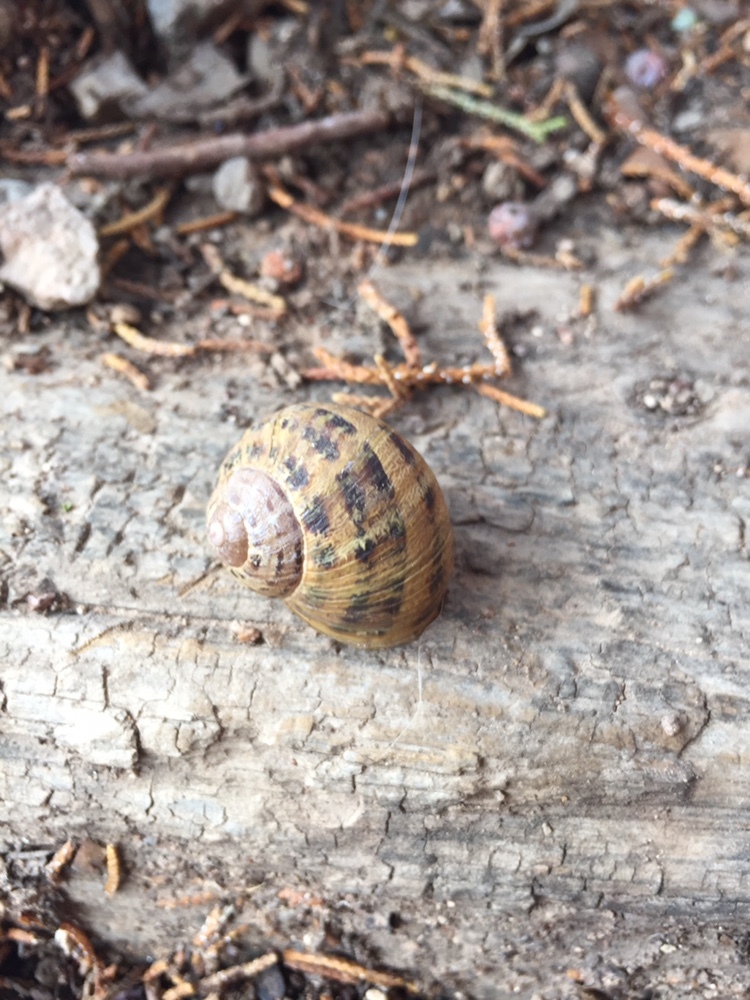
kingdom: Animalia
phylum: Mollusca
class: Gastropoda
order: Stylommatophora
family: Helicidae
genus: Cornu
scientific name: Cornu aspersum
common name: Brown garden snail
